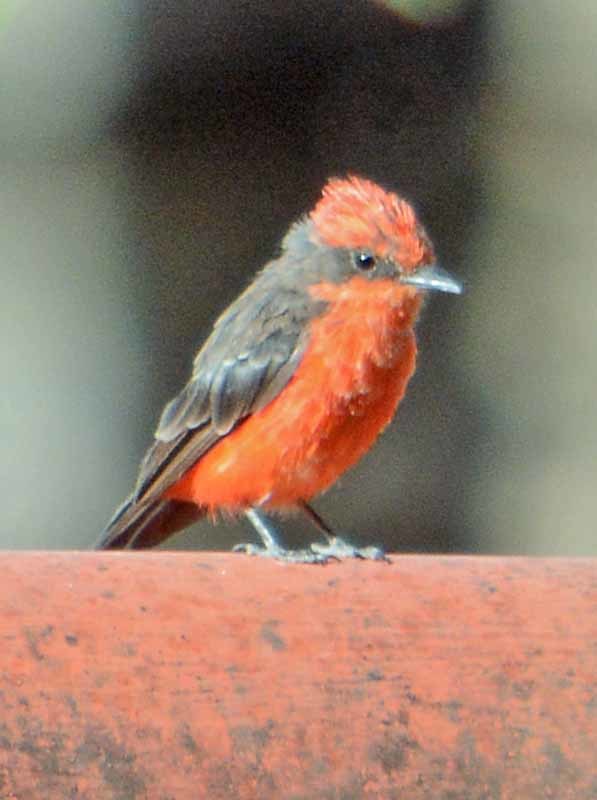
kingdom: Animalia
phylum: Chordata
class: Aves
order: Passeriformes
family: Tyrannidae
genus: Pyrocephalus
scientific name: Pyrocephalus rubinus
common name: Vermilion flycatcher
